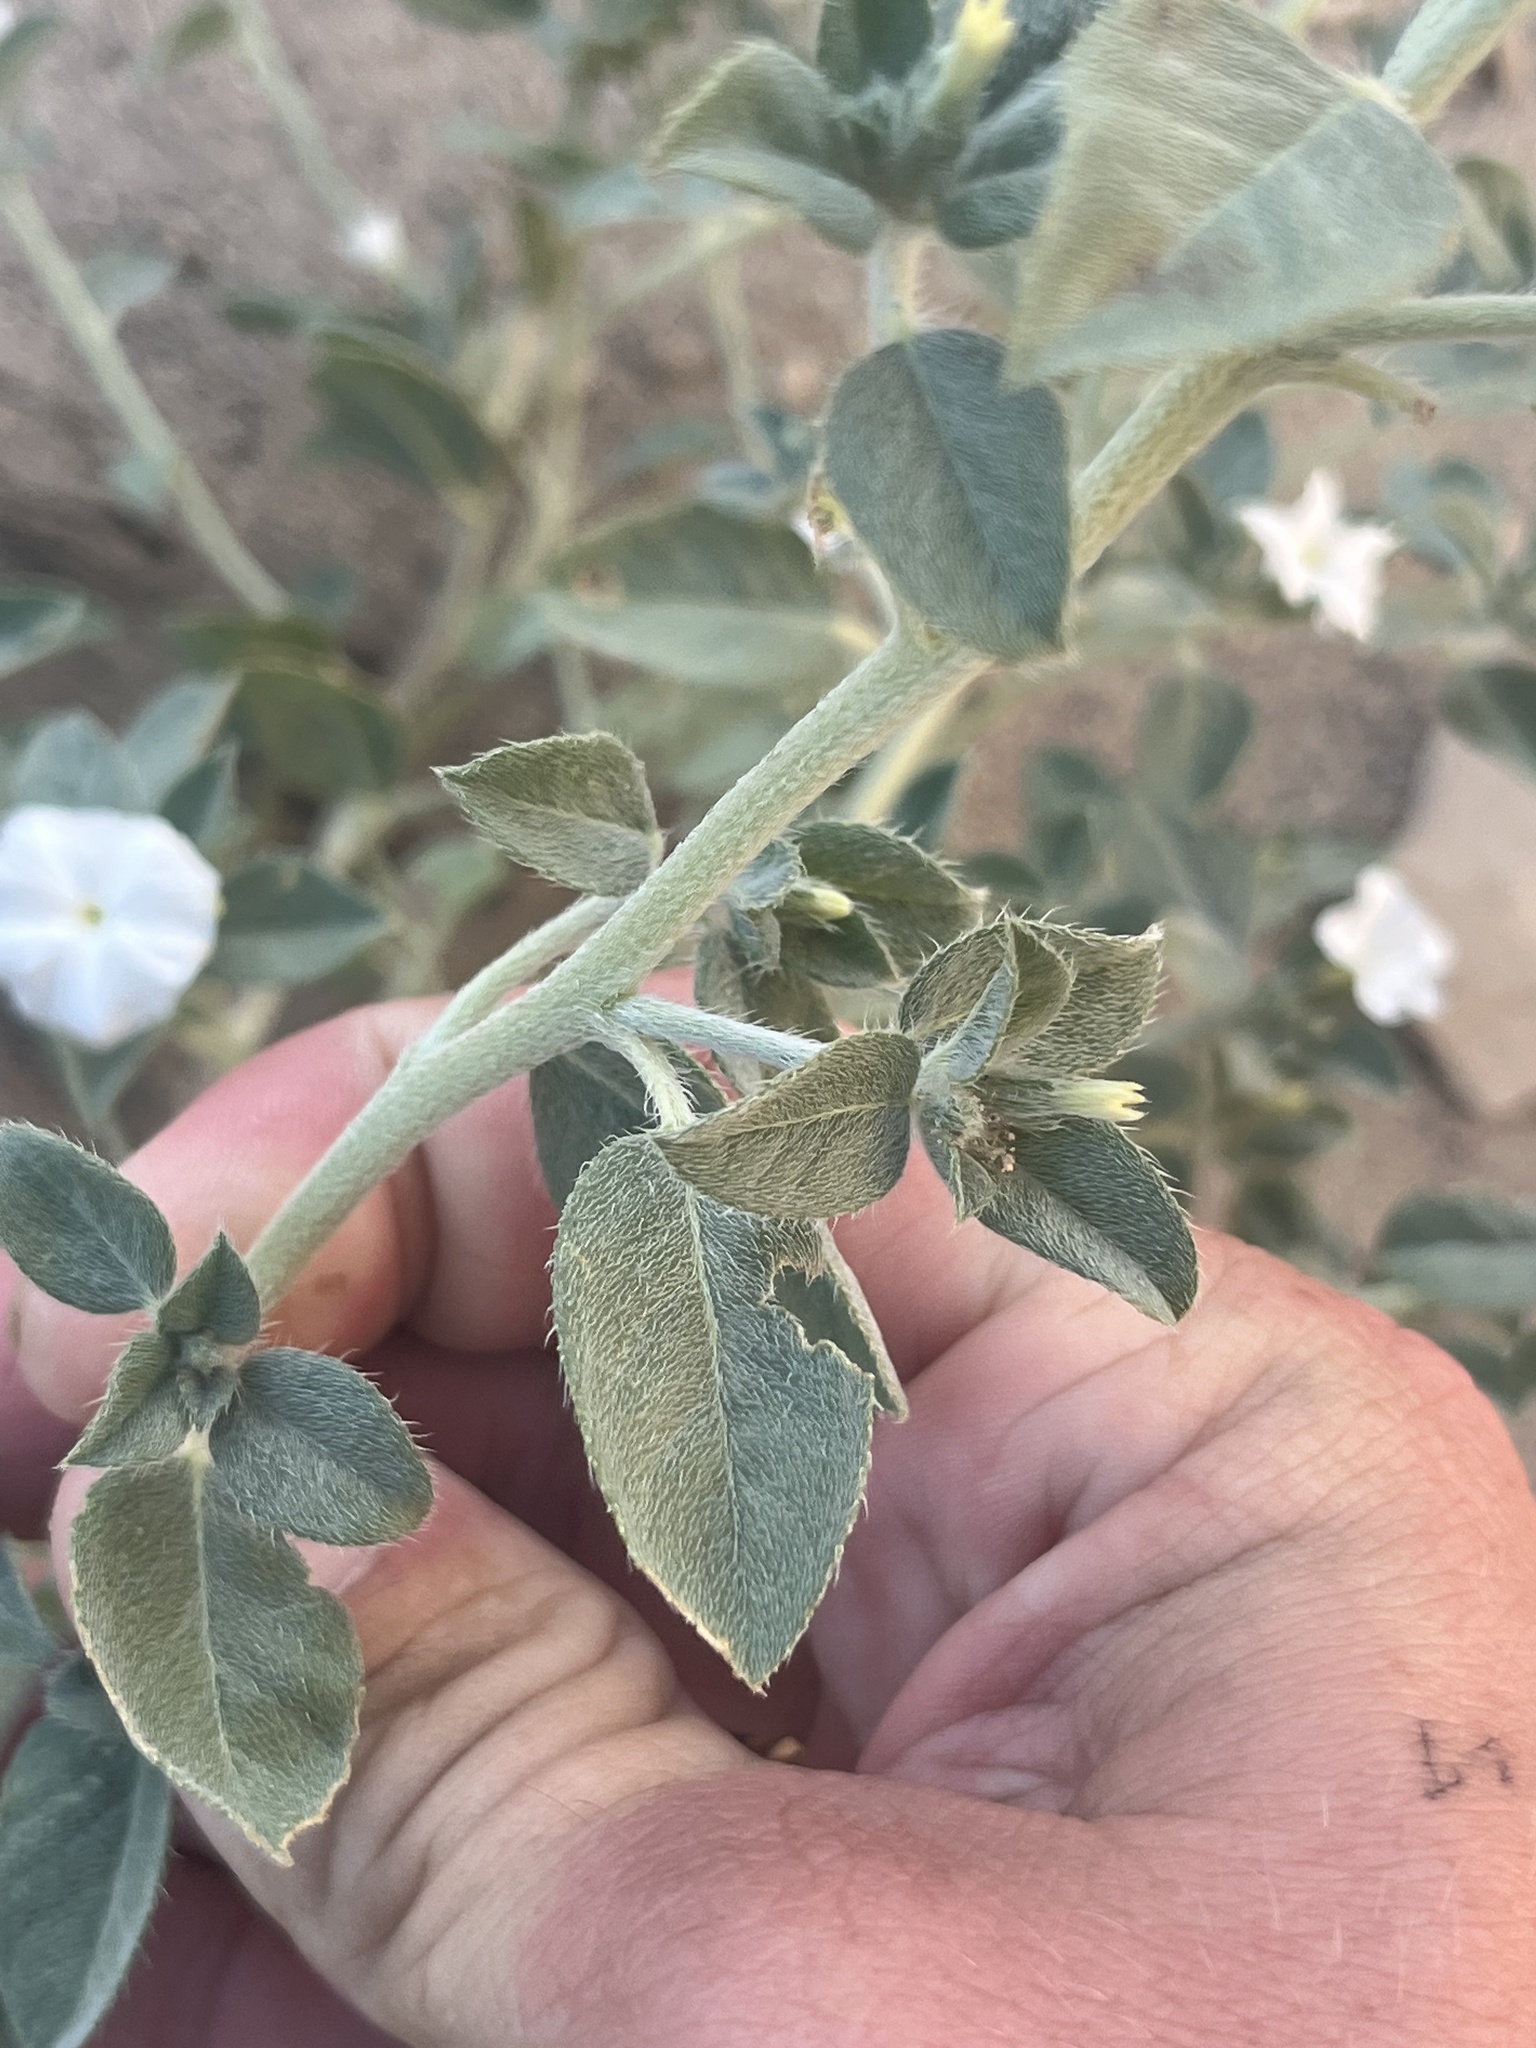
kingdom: Plantae
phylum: Tracheophyta
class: Magnoliopsida
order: Boraginales
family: Heliotropiaceae
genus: Euploca
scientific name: Euploca convolvulacea
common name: Bindweed heliotrope
